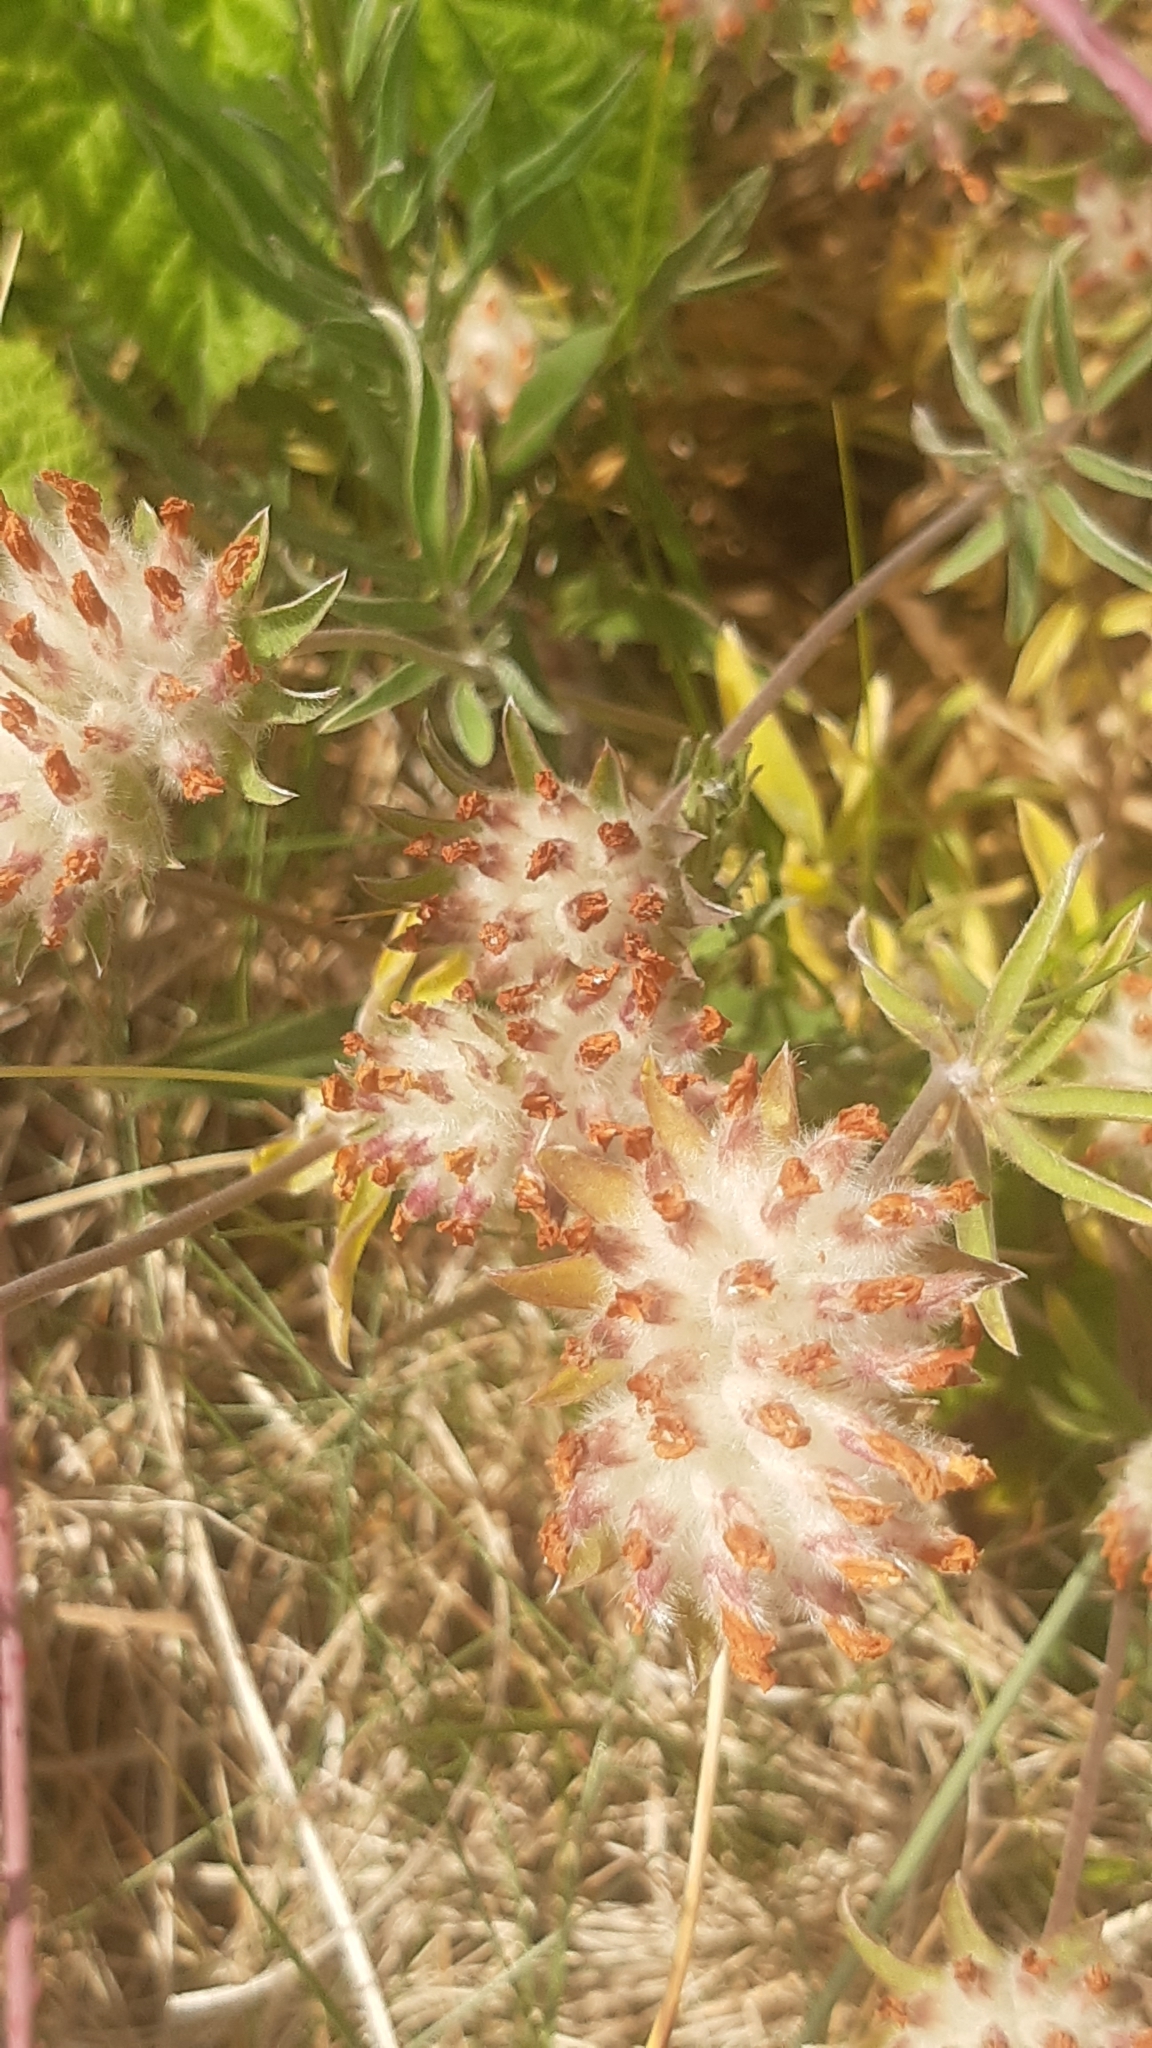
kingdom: Plantae
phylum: Tracheophyta
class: Magnoliopsida
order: Fabales
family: Fabaceae
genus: Anthyllis
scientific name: Anthyllis vulneraria
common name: Kidney vetch
